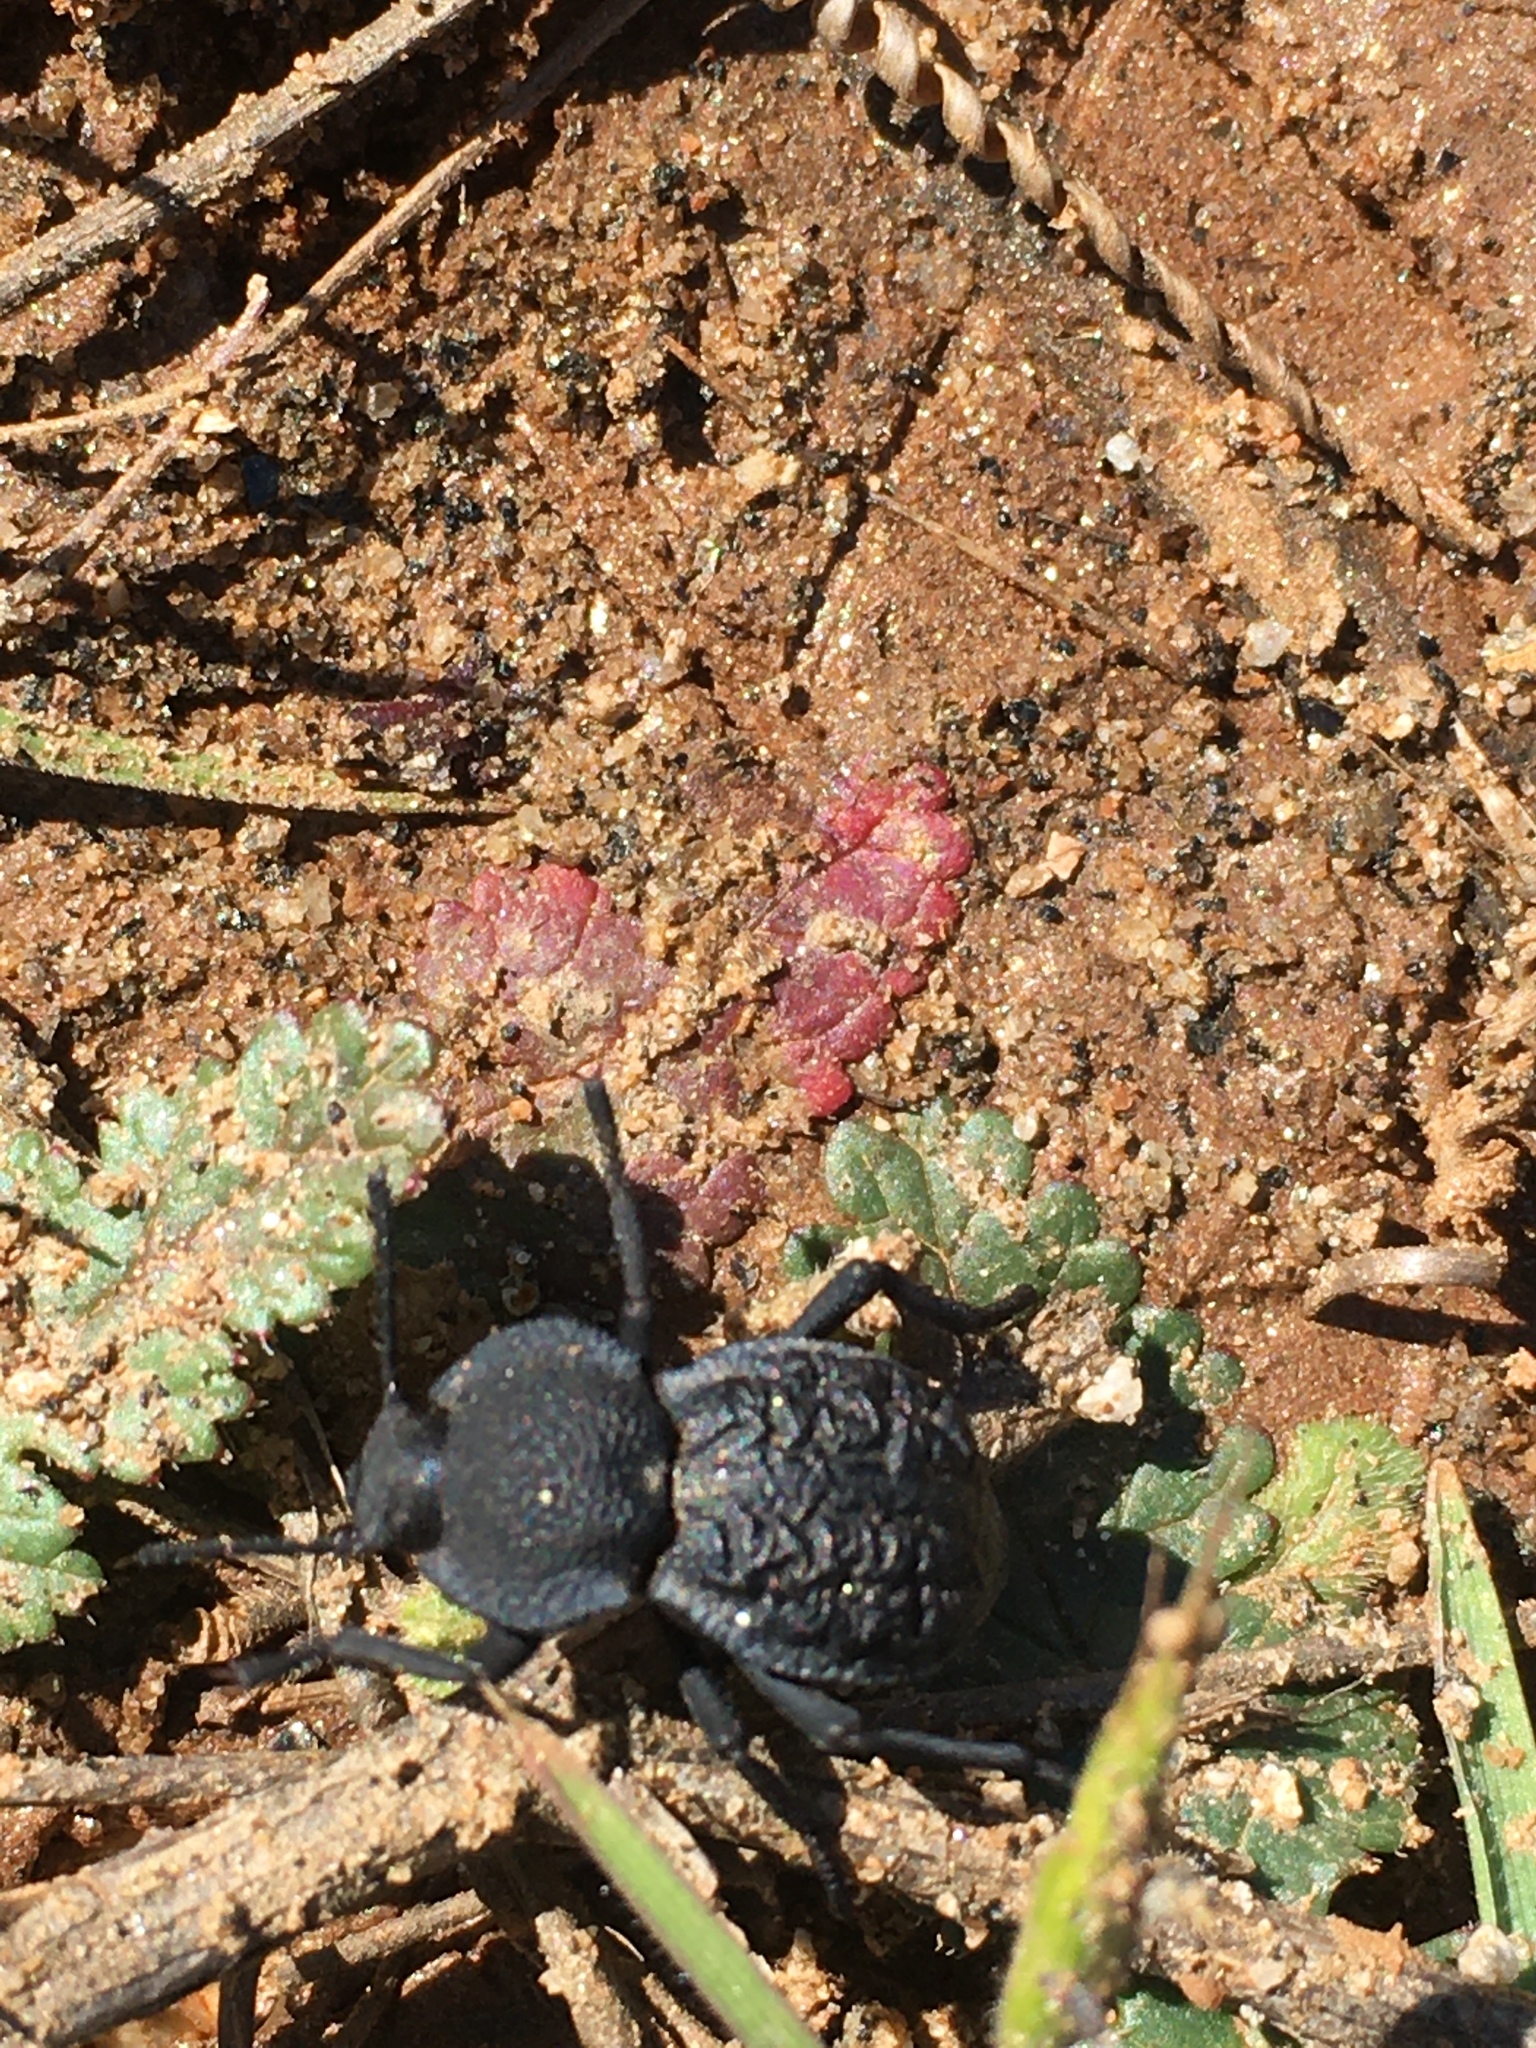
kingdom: Animalia
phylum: Arthropoda
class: Insecta
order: Coleoptera
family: Tenebrionidae
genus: Microschatia
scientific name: Microschatia inaequalis
